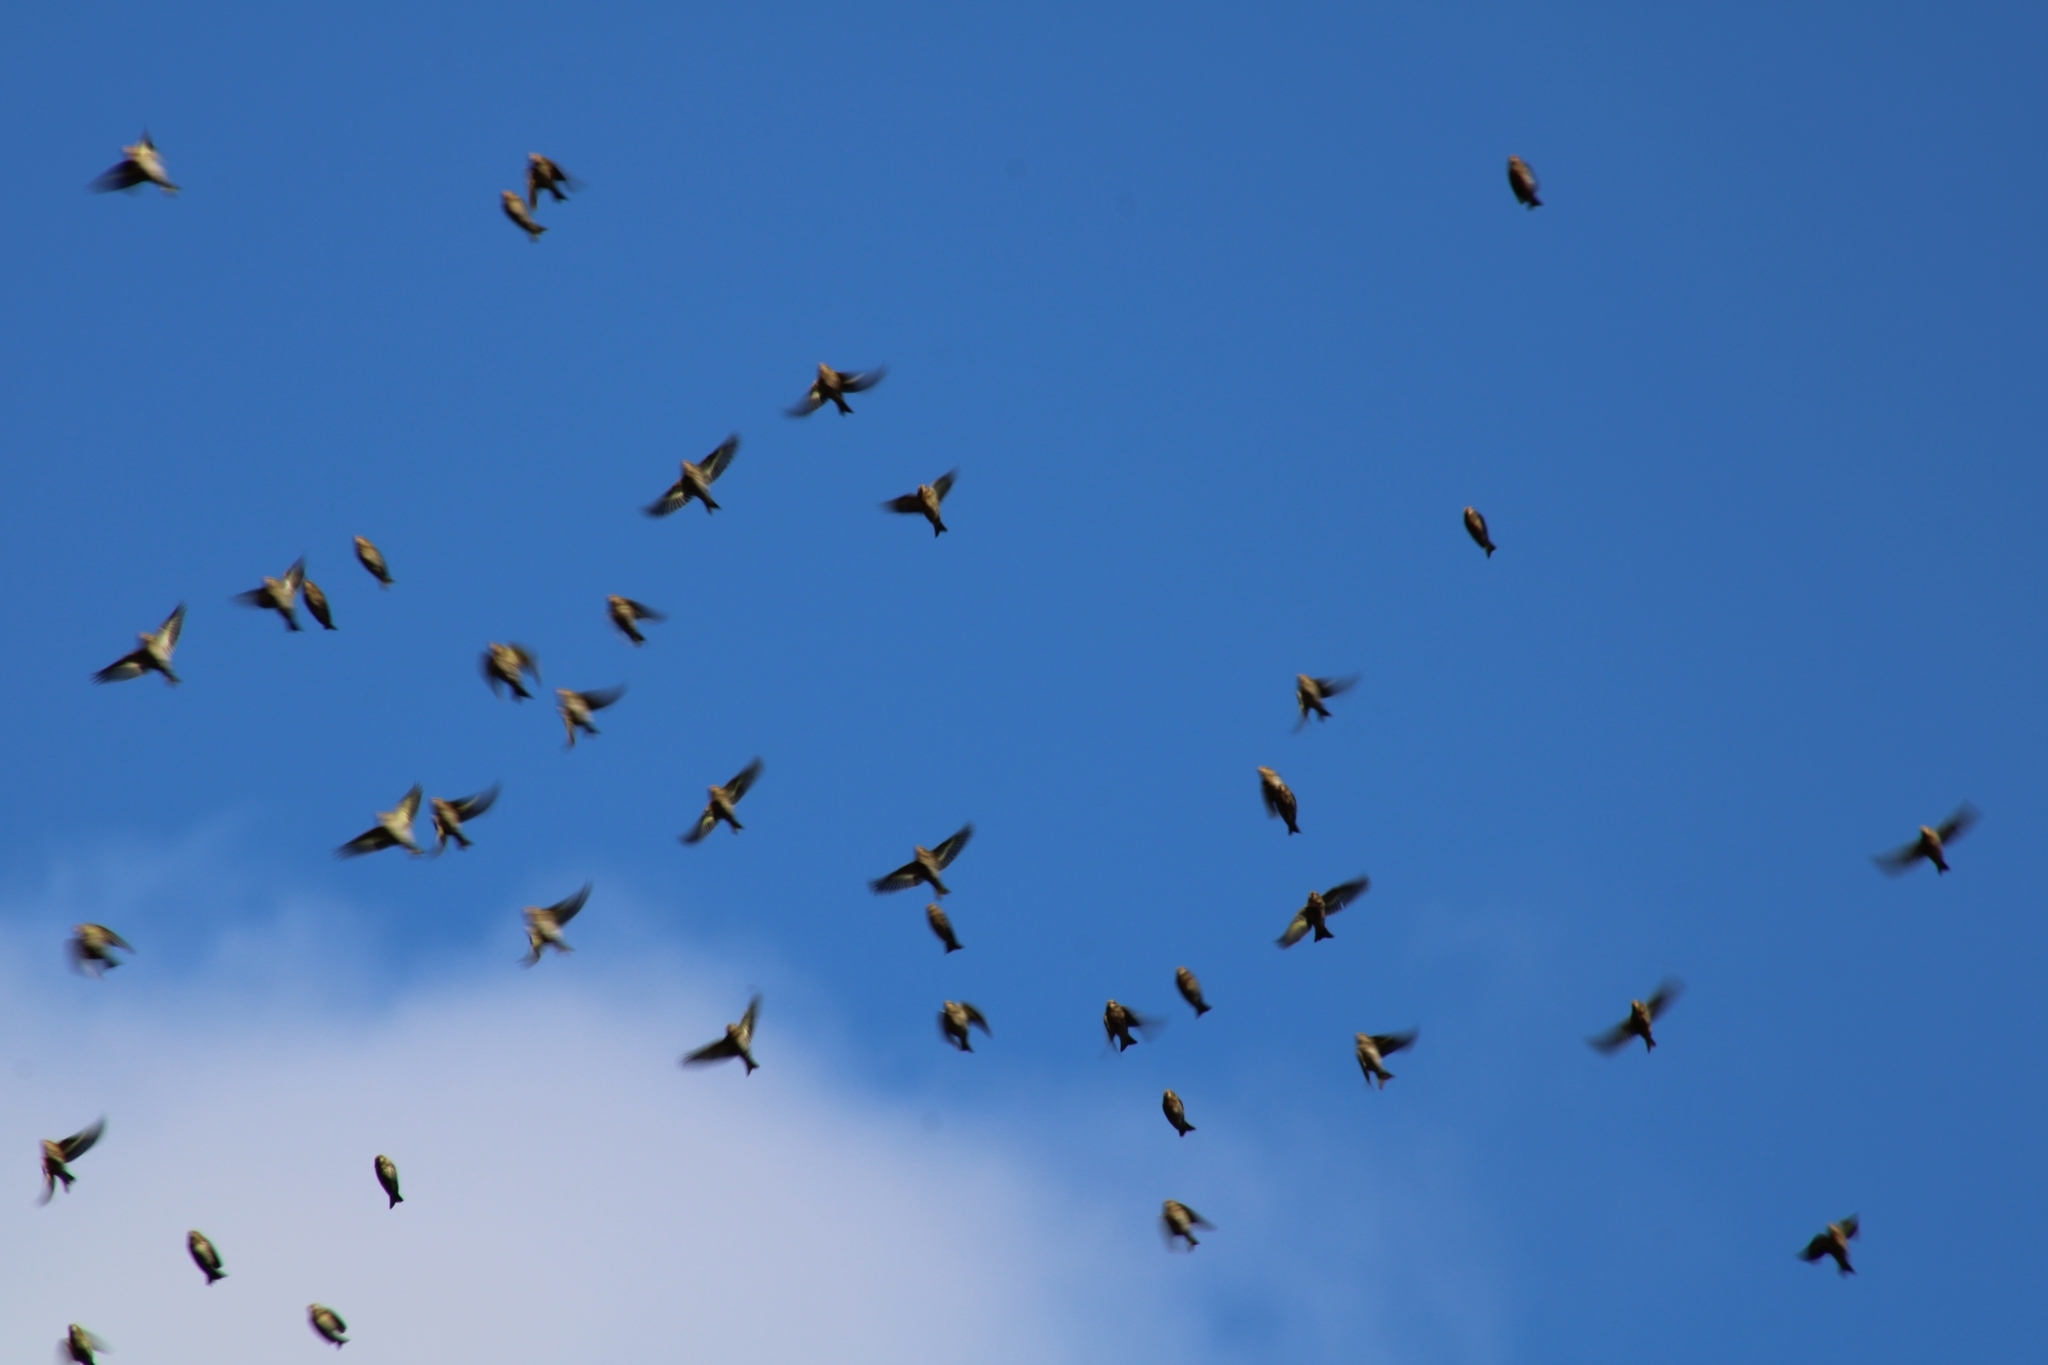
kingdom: Animalia
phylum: Chordata
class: Aves
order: Passeriformes
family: Fringillidae
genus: Spinus
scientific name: Spinus pinus
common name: Pine siskin
